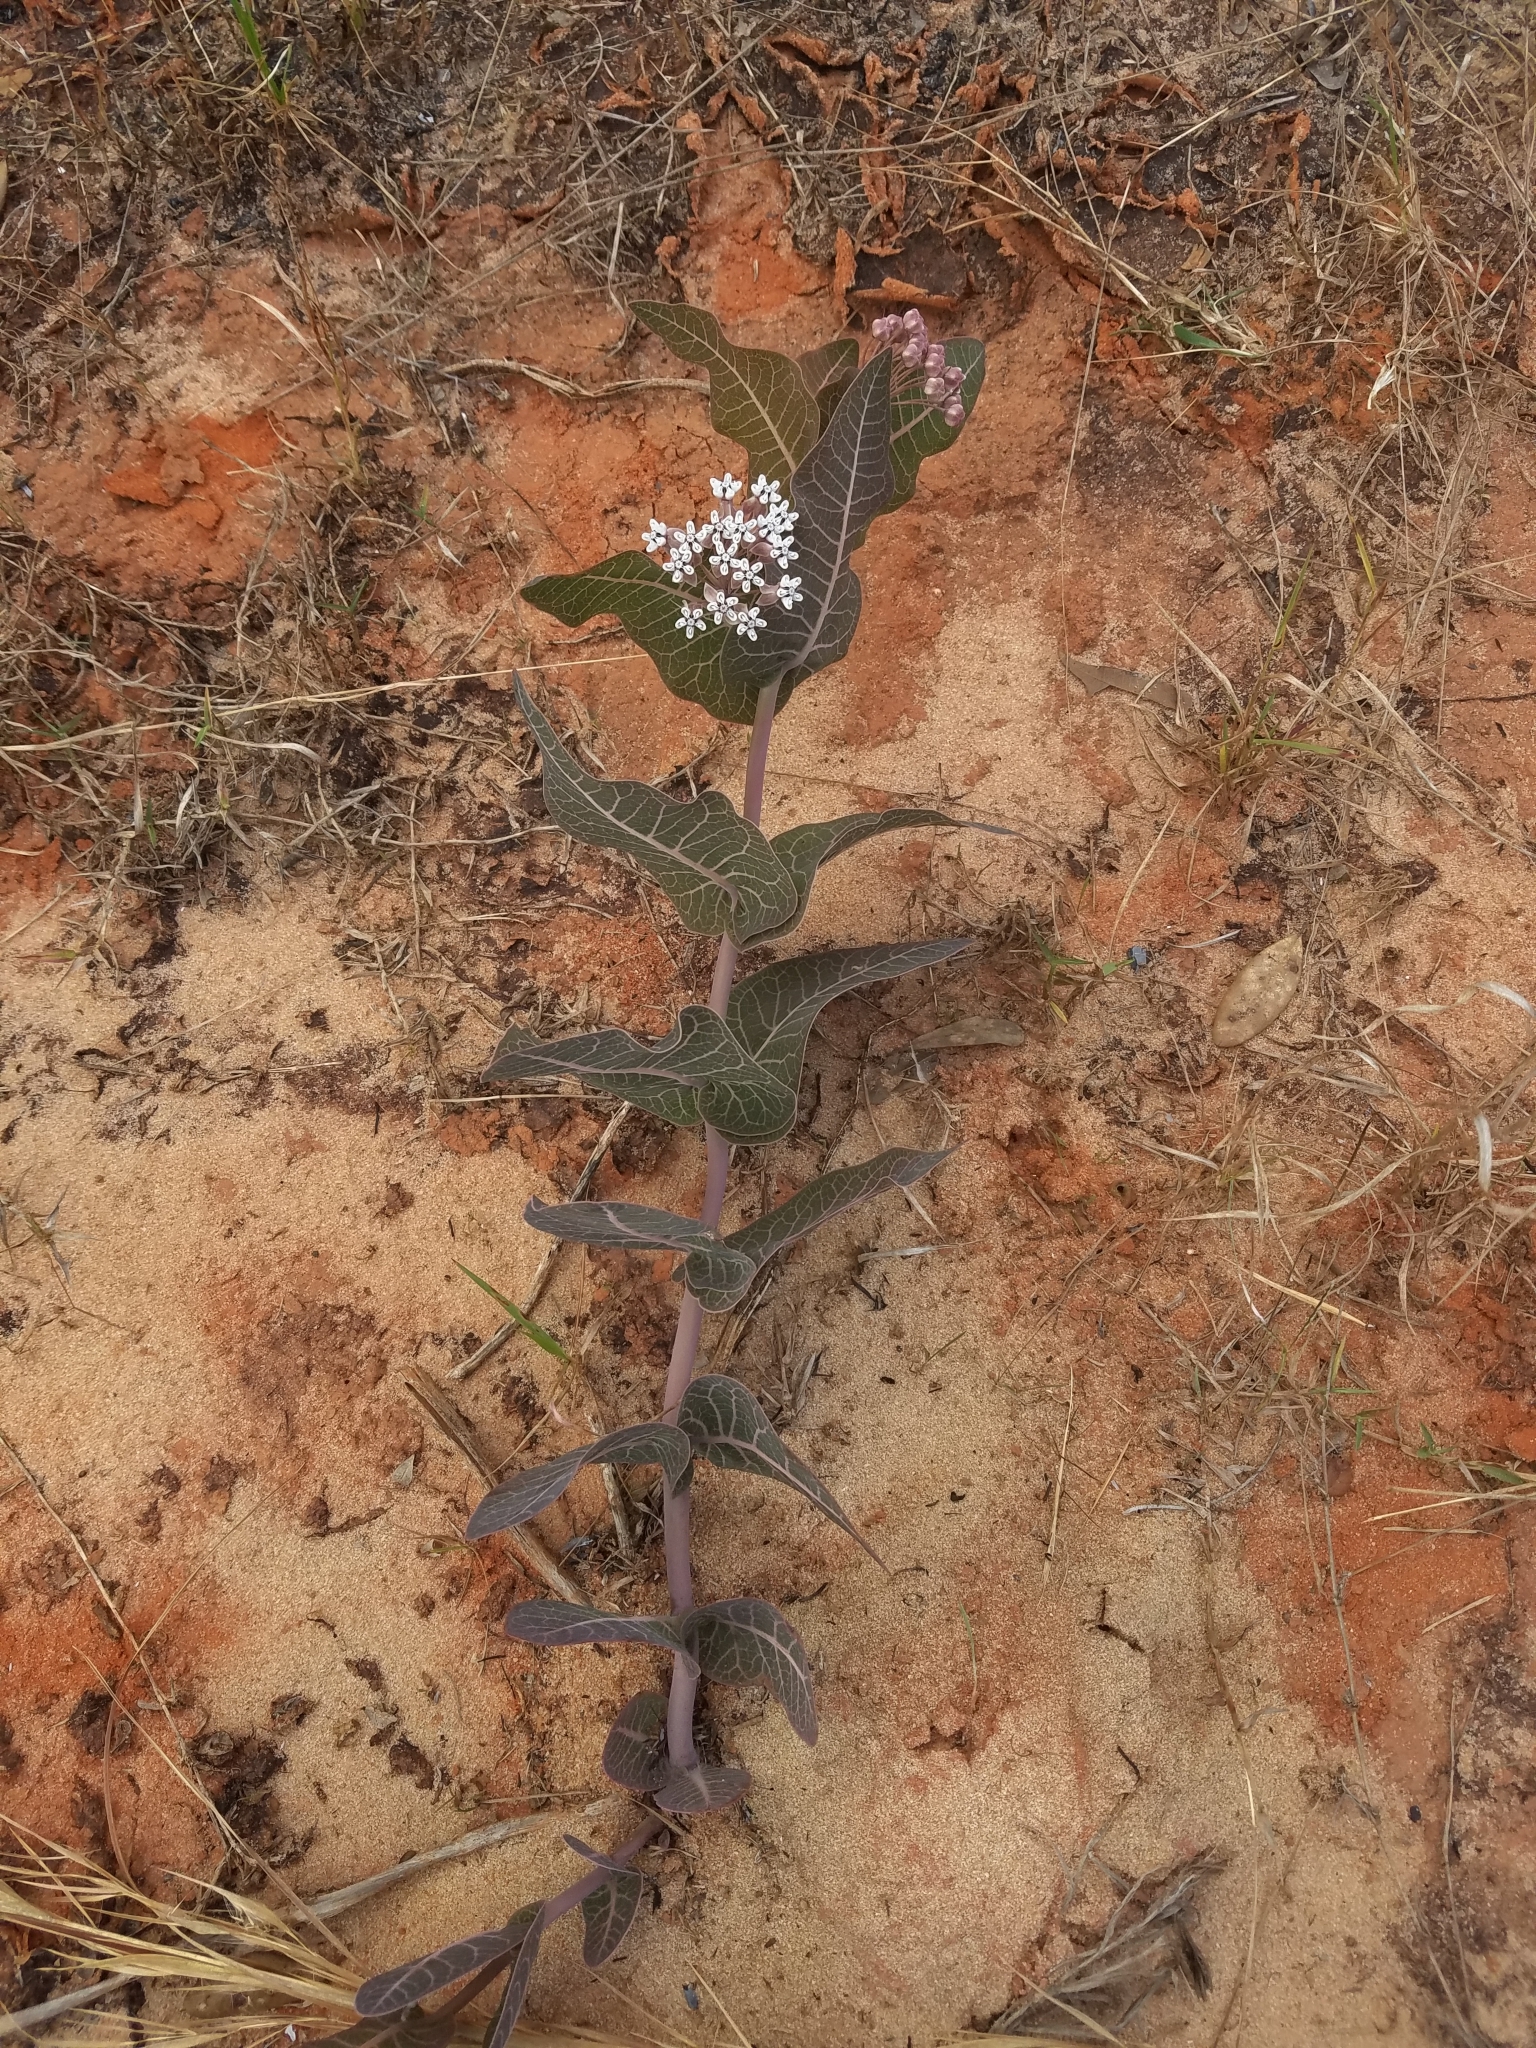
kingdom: Plantae
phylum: Tracheophyta
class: Magnoliopsida
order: Gentianales
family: Apocynaceae
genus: Asclepias
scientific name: Asclepias humistrata
